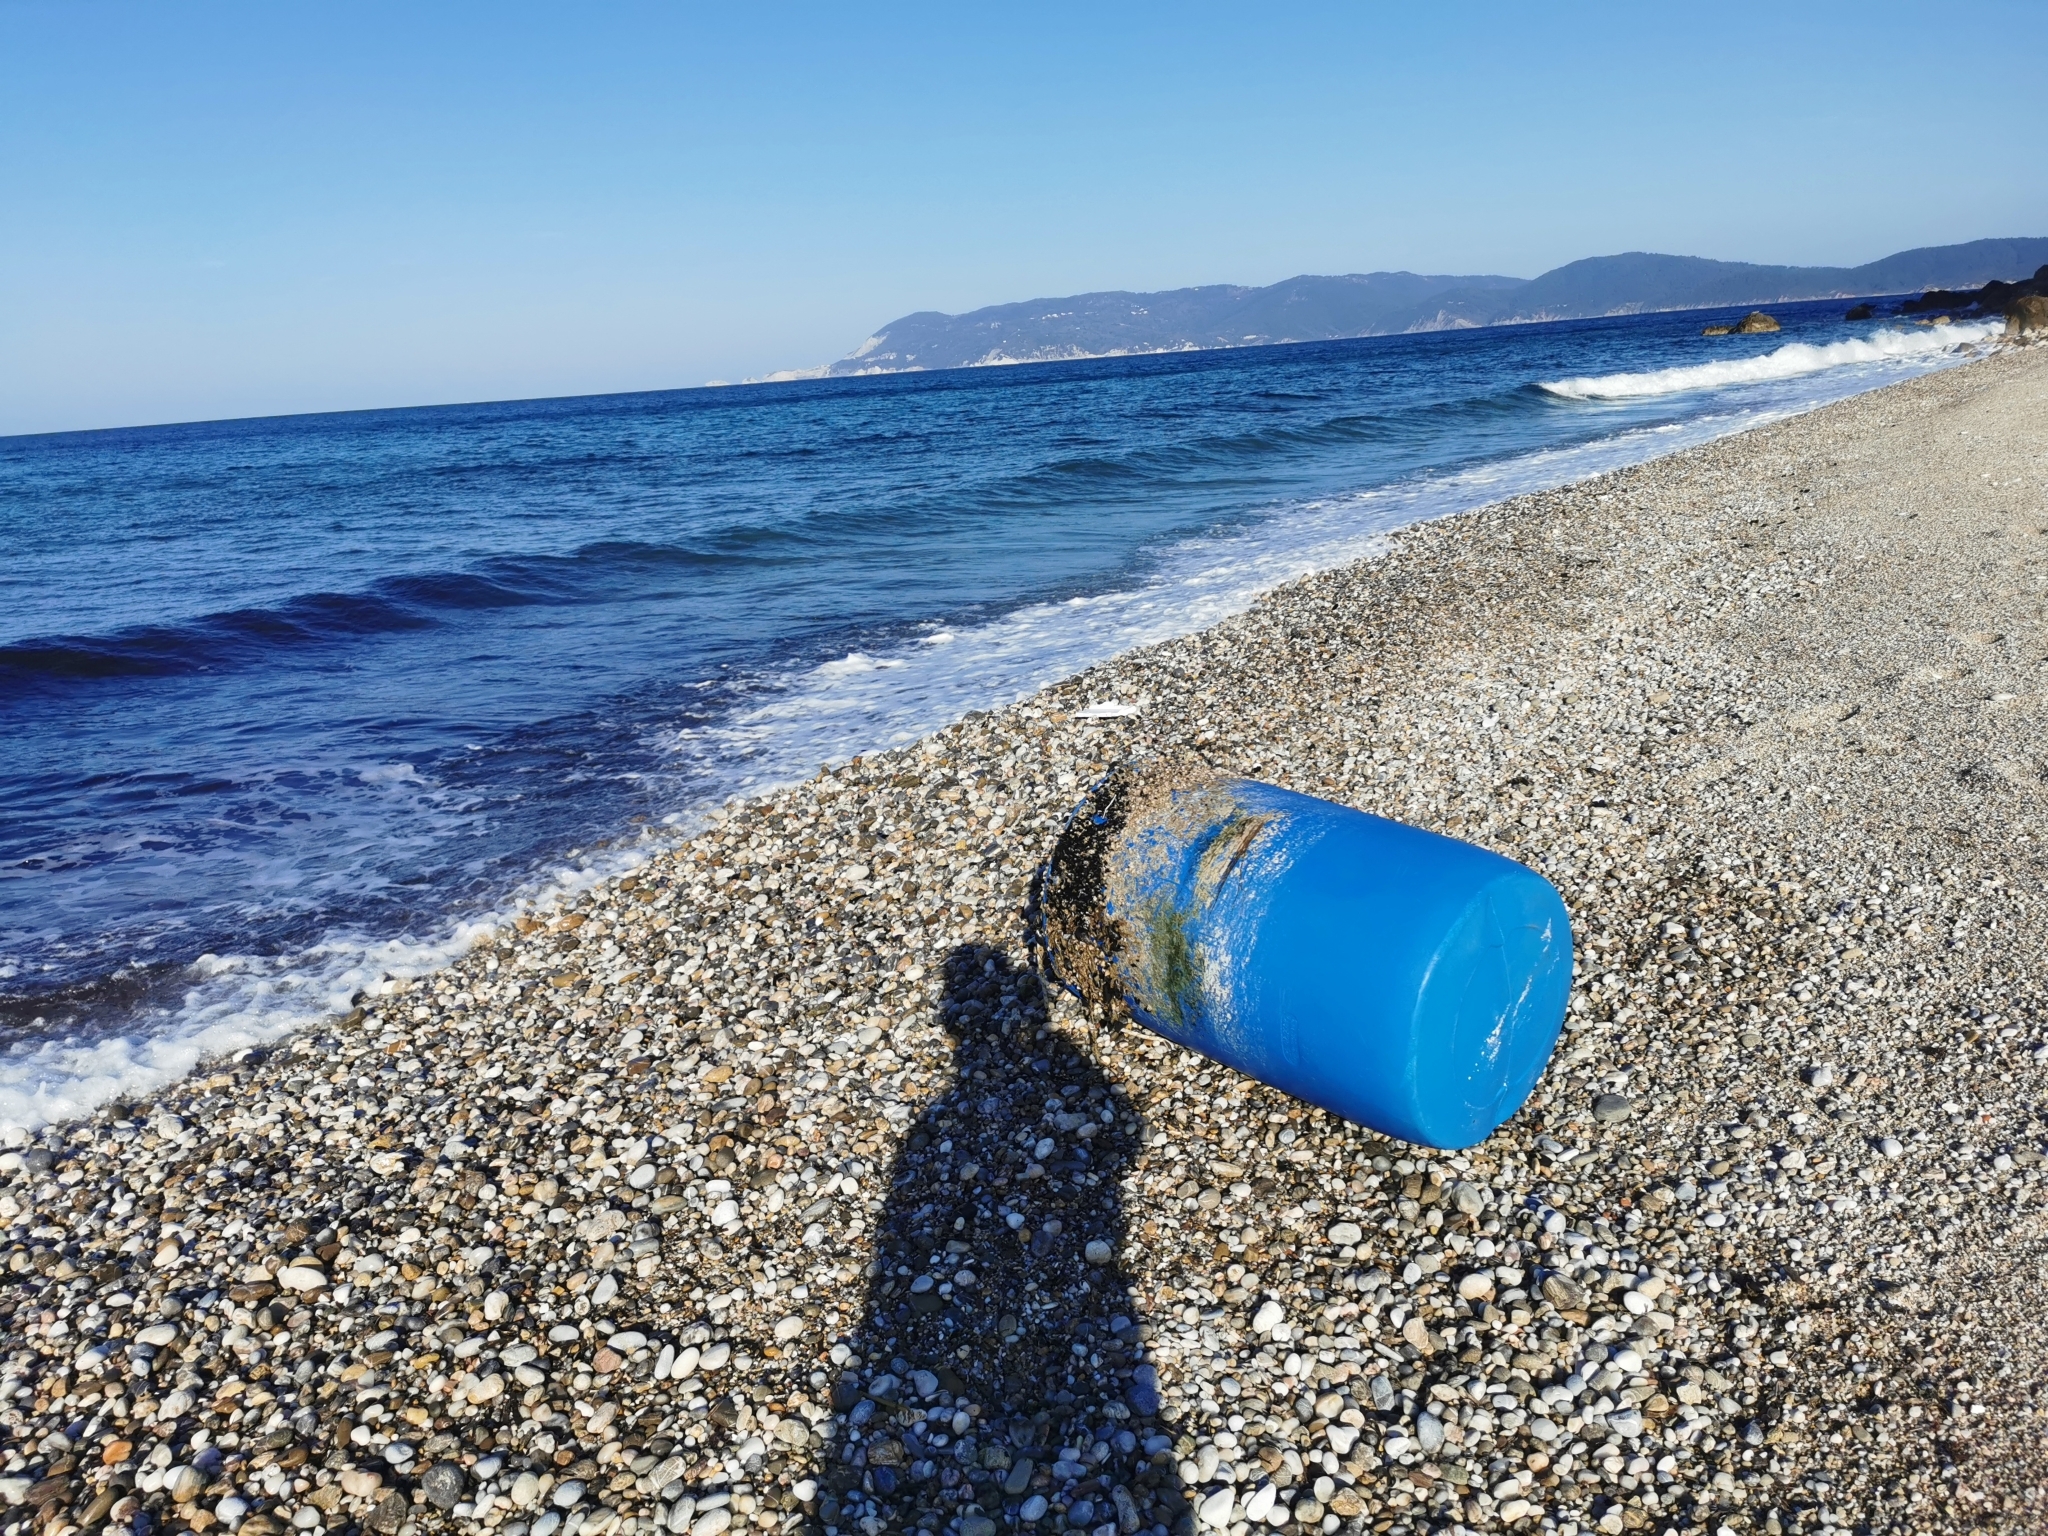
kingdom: Animalia
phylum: Mollusca
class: Bivalvia
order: Mytilida
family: Mytilidae
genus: Mytilus
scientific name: Mytilus galloprovincialis
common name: Mediterranean mussel
